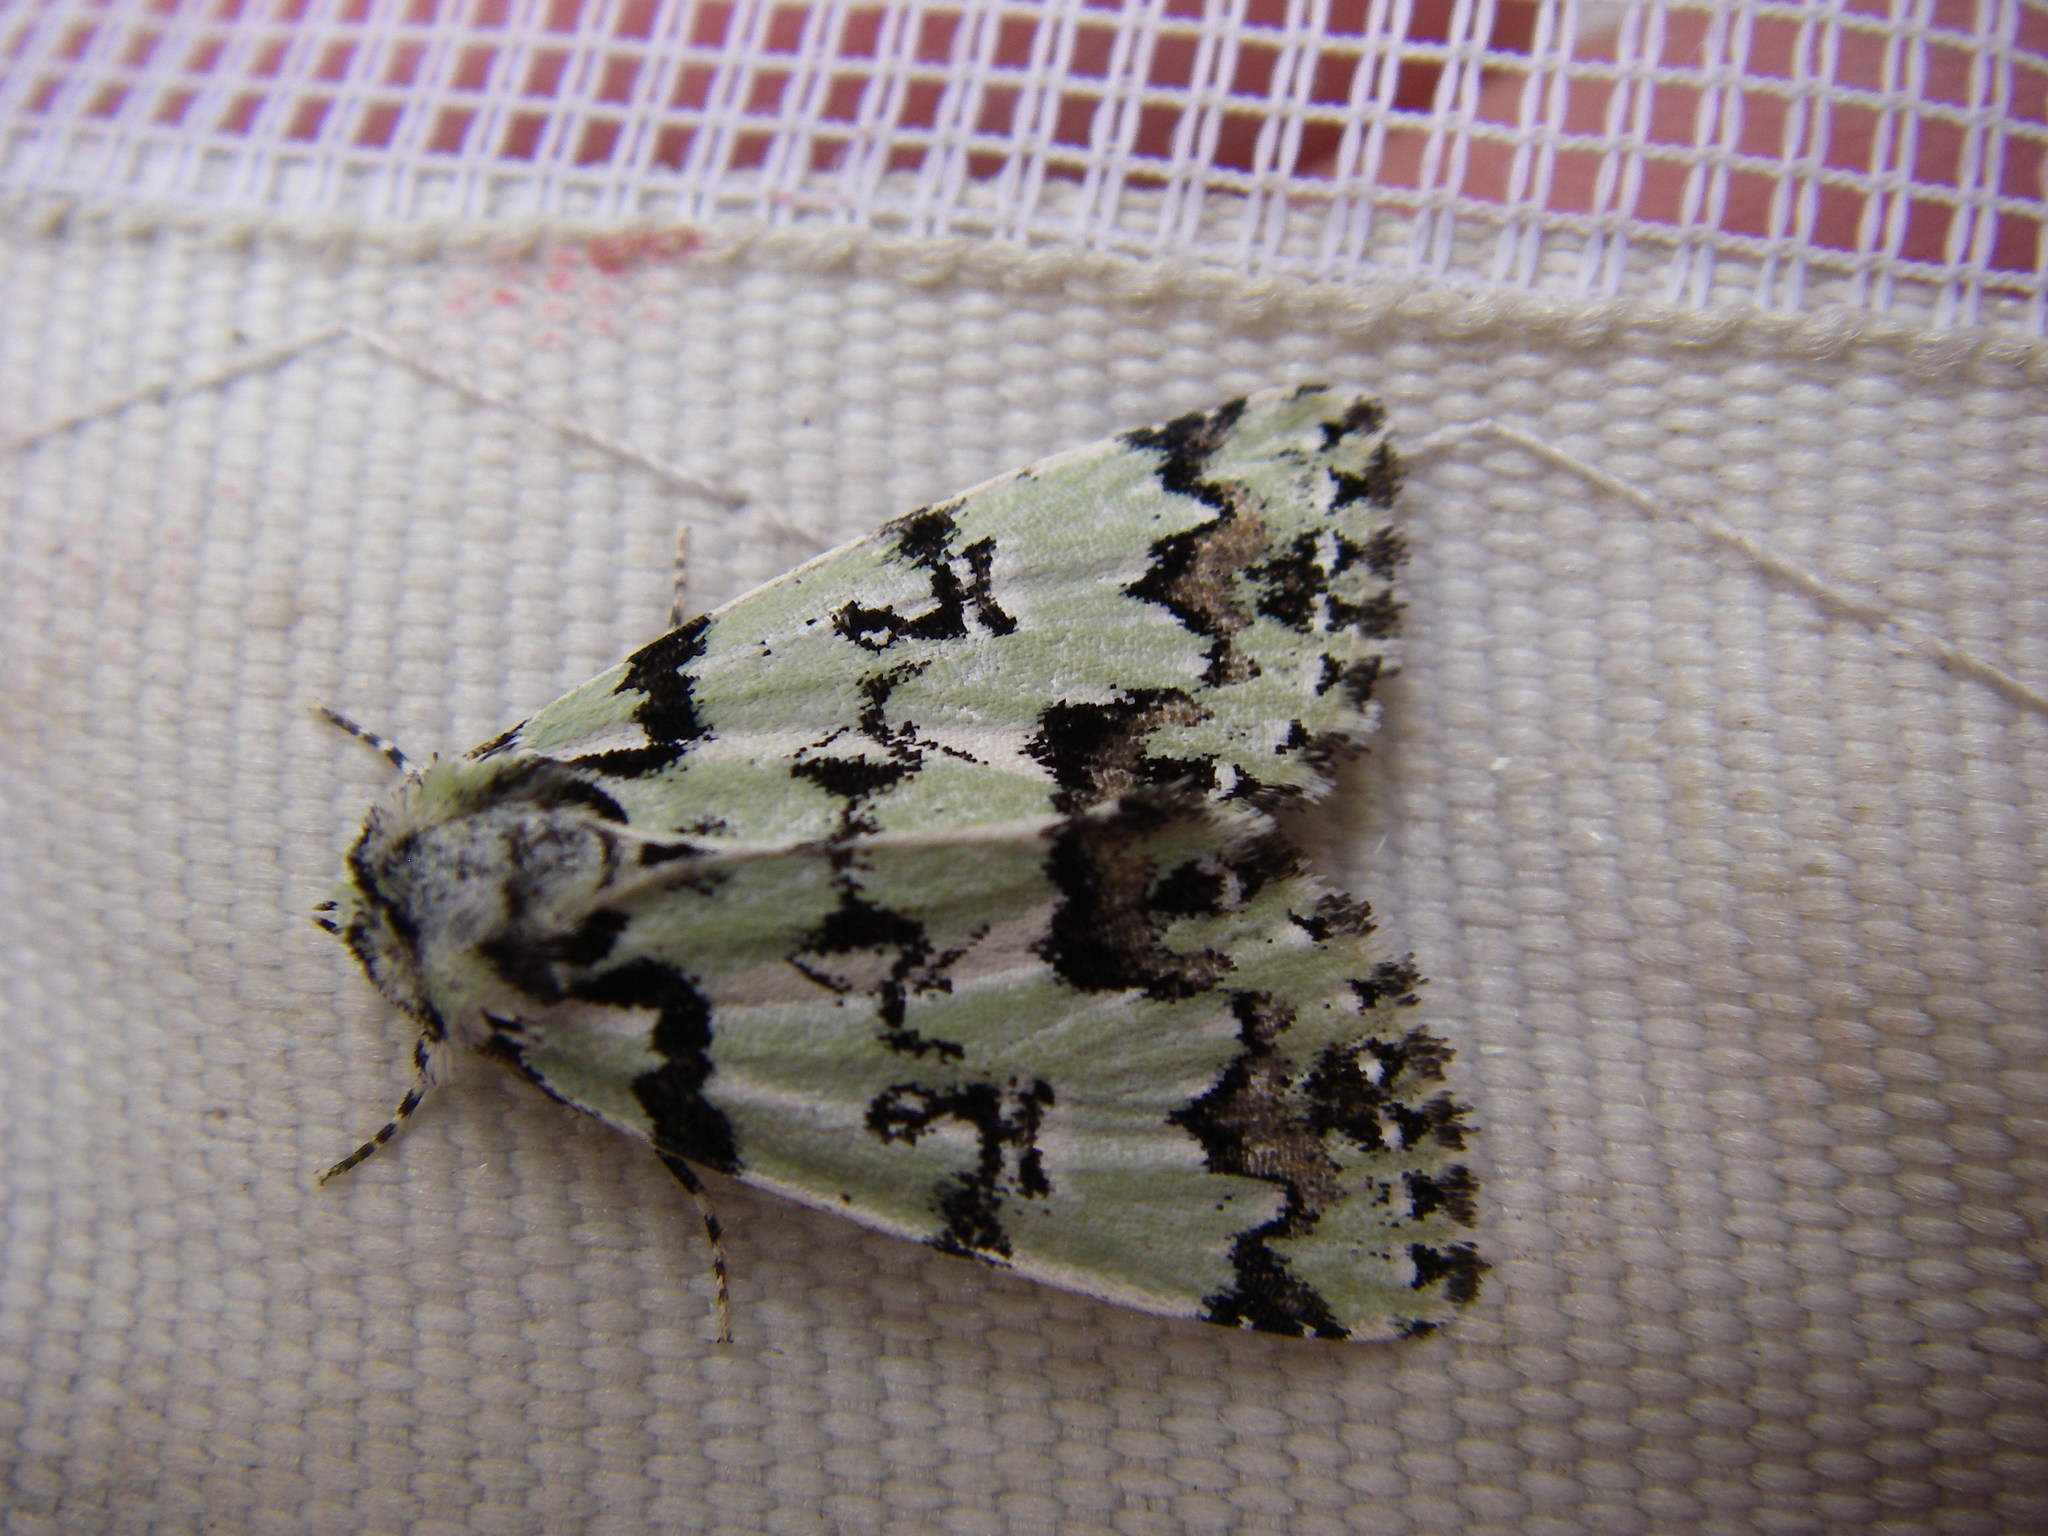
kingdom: Animalia
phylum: Arthropoda
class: Insecta
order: Lepidoptera
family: Noctuidae
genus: Moma
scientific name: Moma alpium
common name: Scarce merveille du jour
